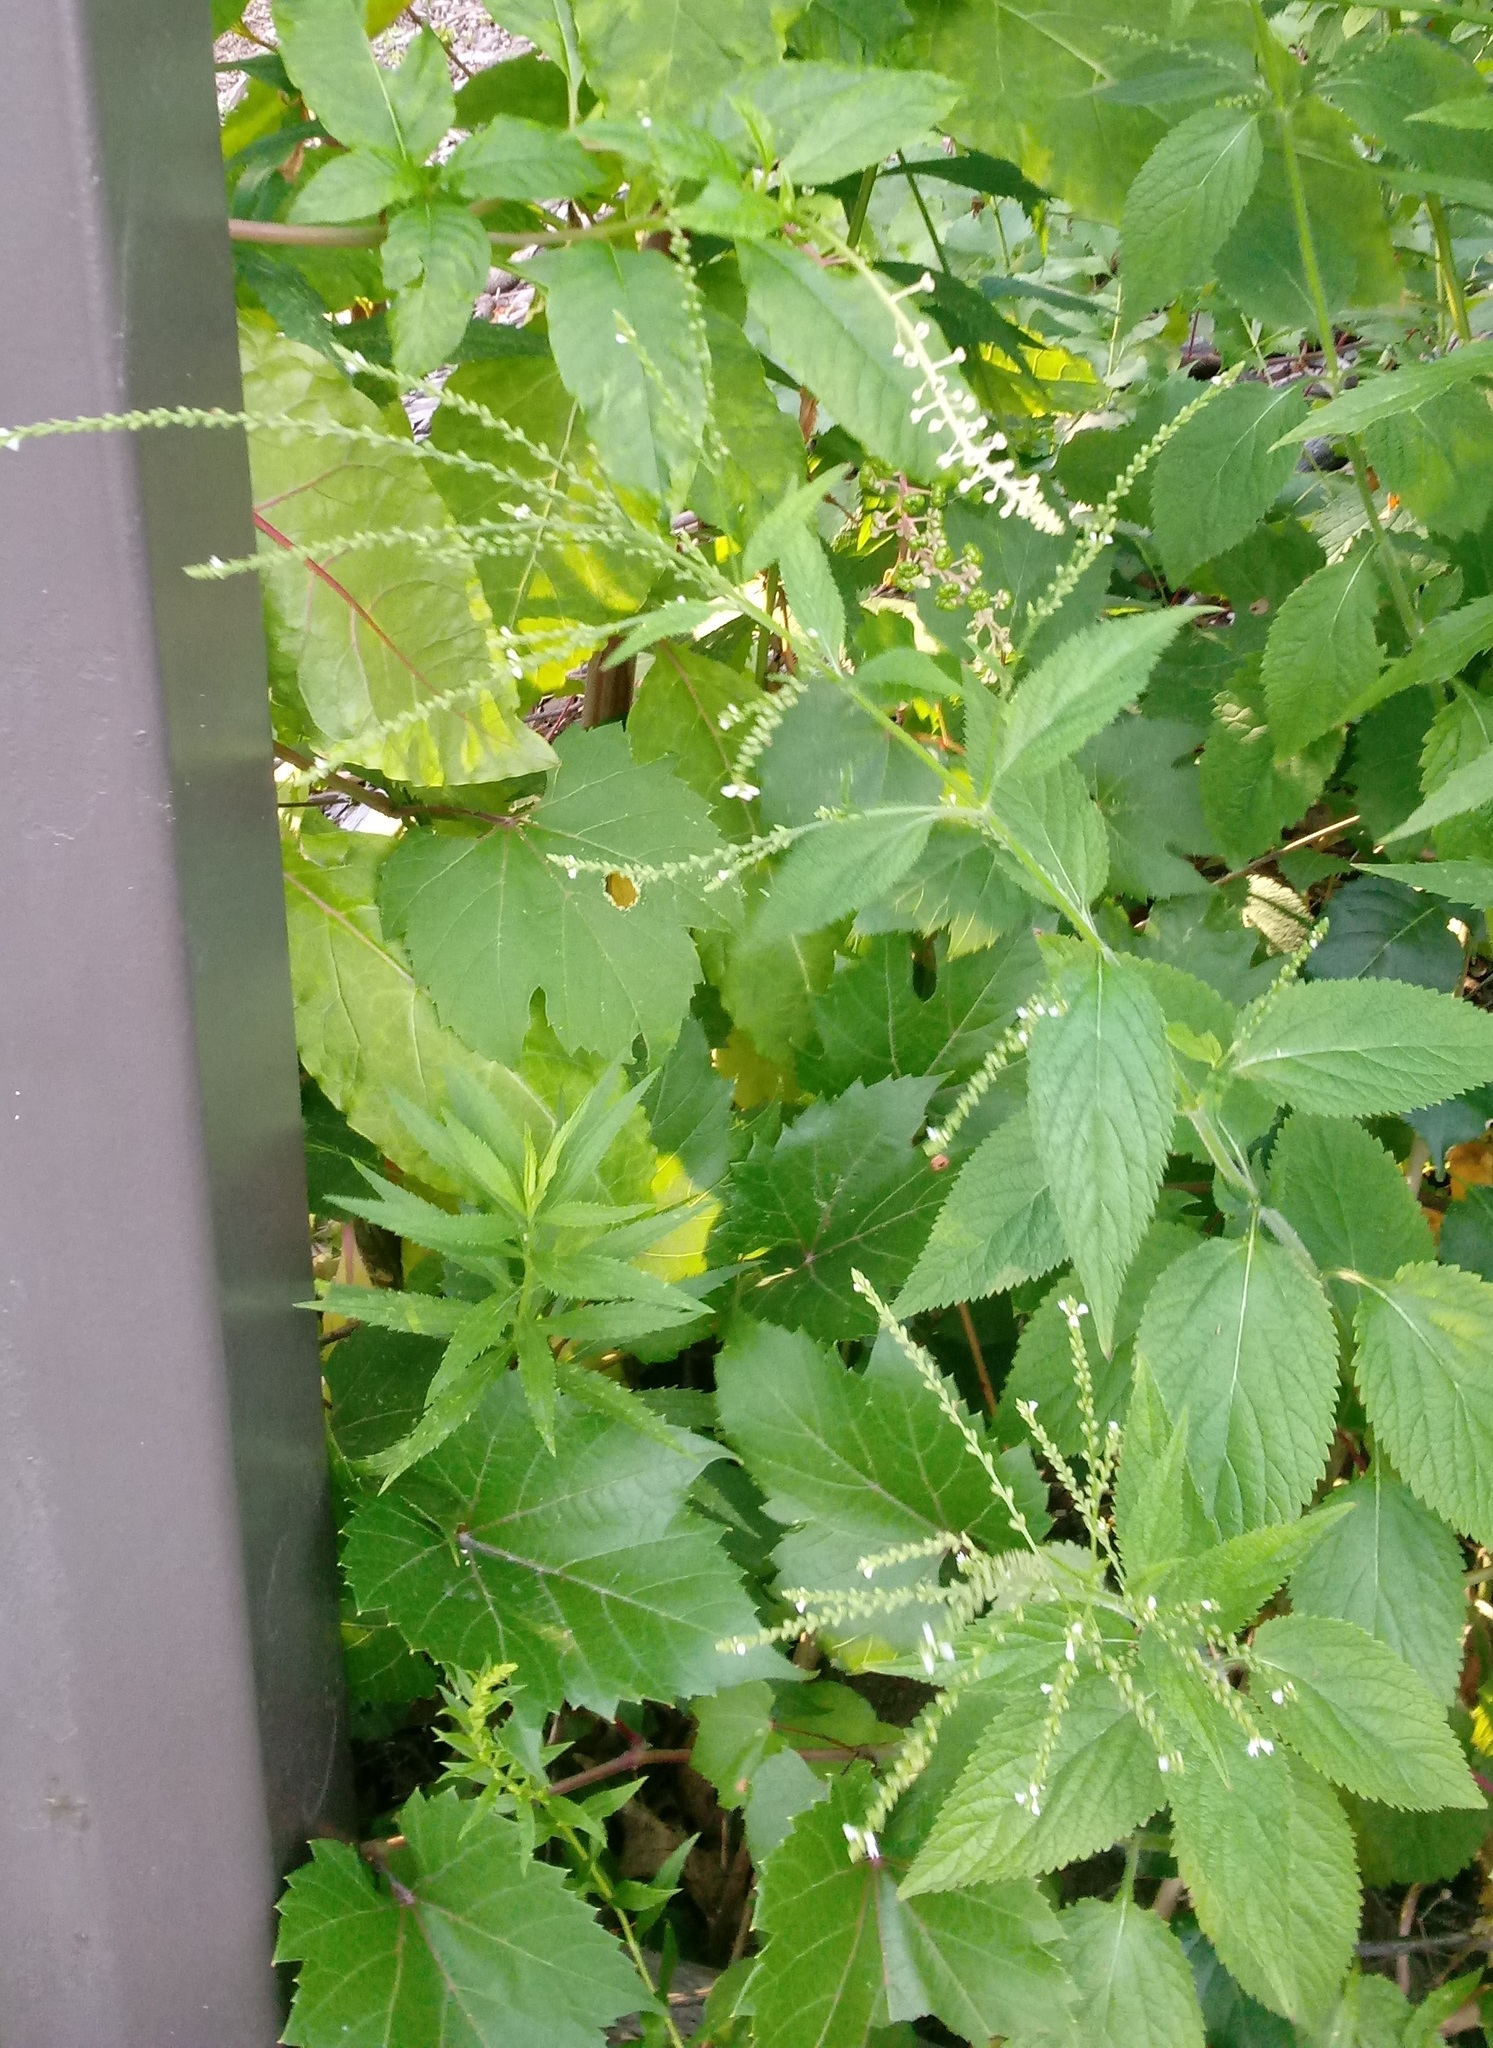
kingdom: Plantae
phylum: Tracheophyta
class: Magnoliopsida
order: Lamiales
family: Verbenaceae
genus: Verbena
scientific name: Verbena urticifolia
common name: Nettle-leaved vervain
